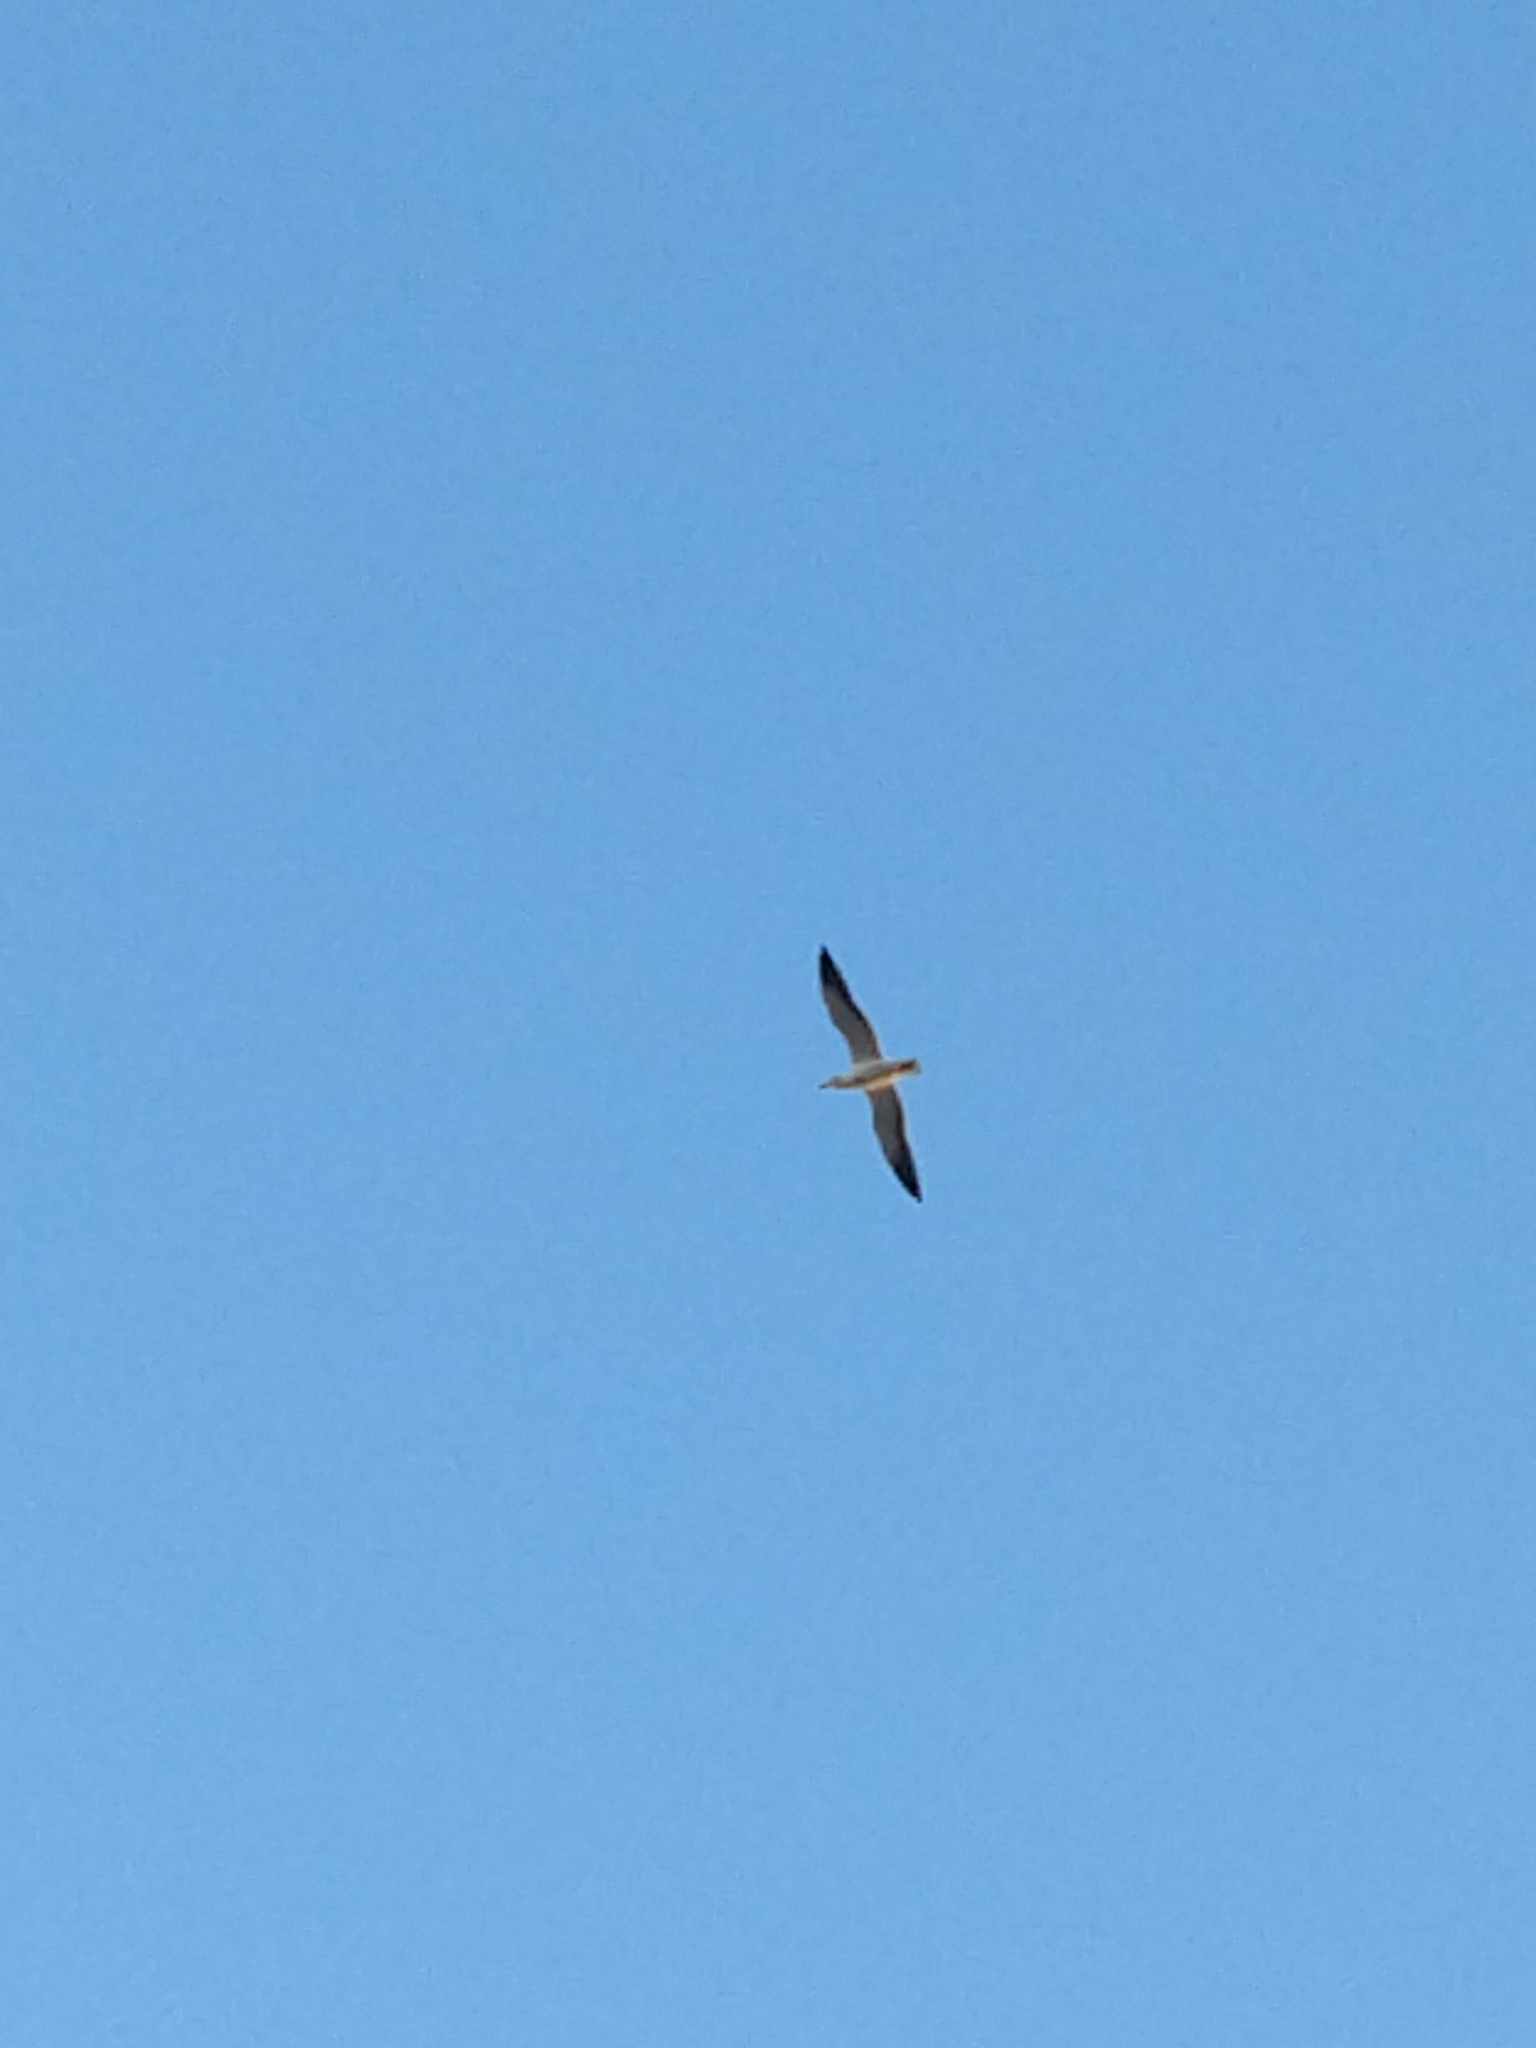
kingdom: Animalia
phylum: Chordata
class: Aves
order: Charadriiformes
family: Laridae
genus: Larus
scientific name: Larus dominicanus
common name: Kelp gull
